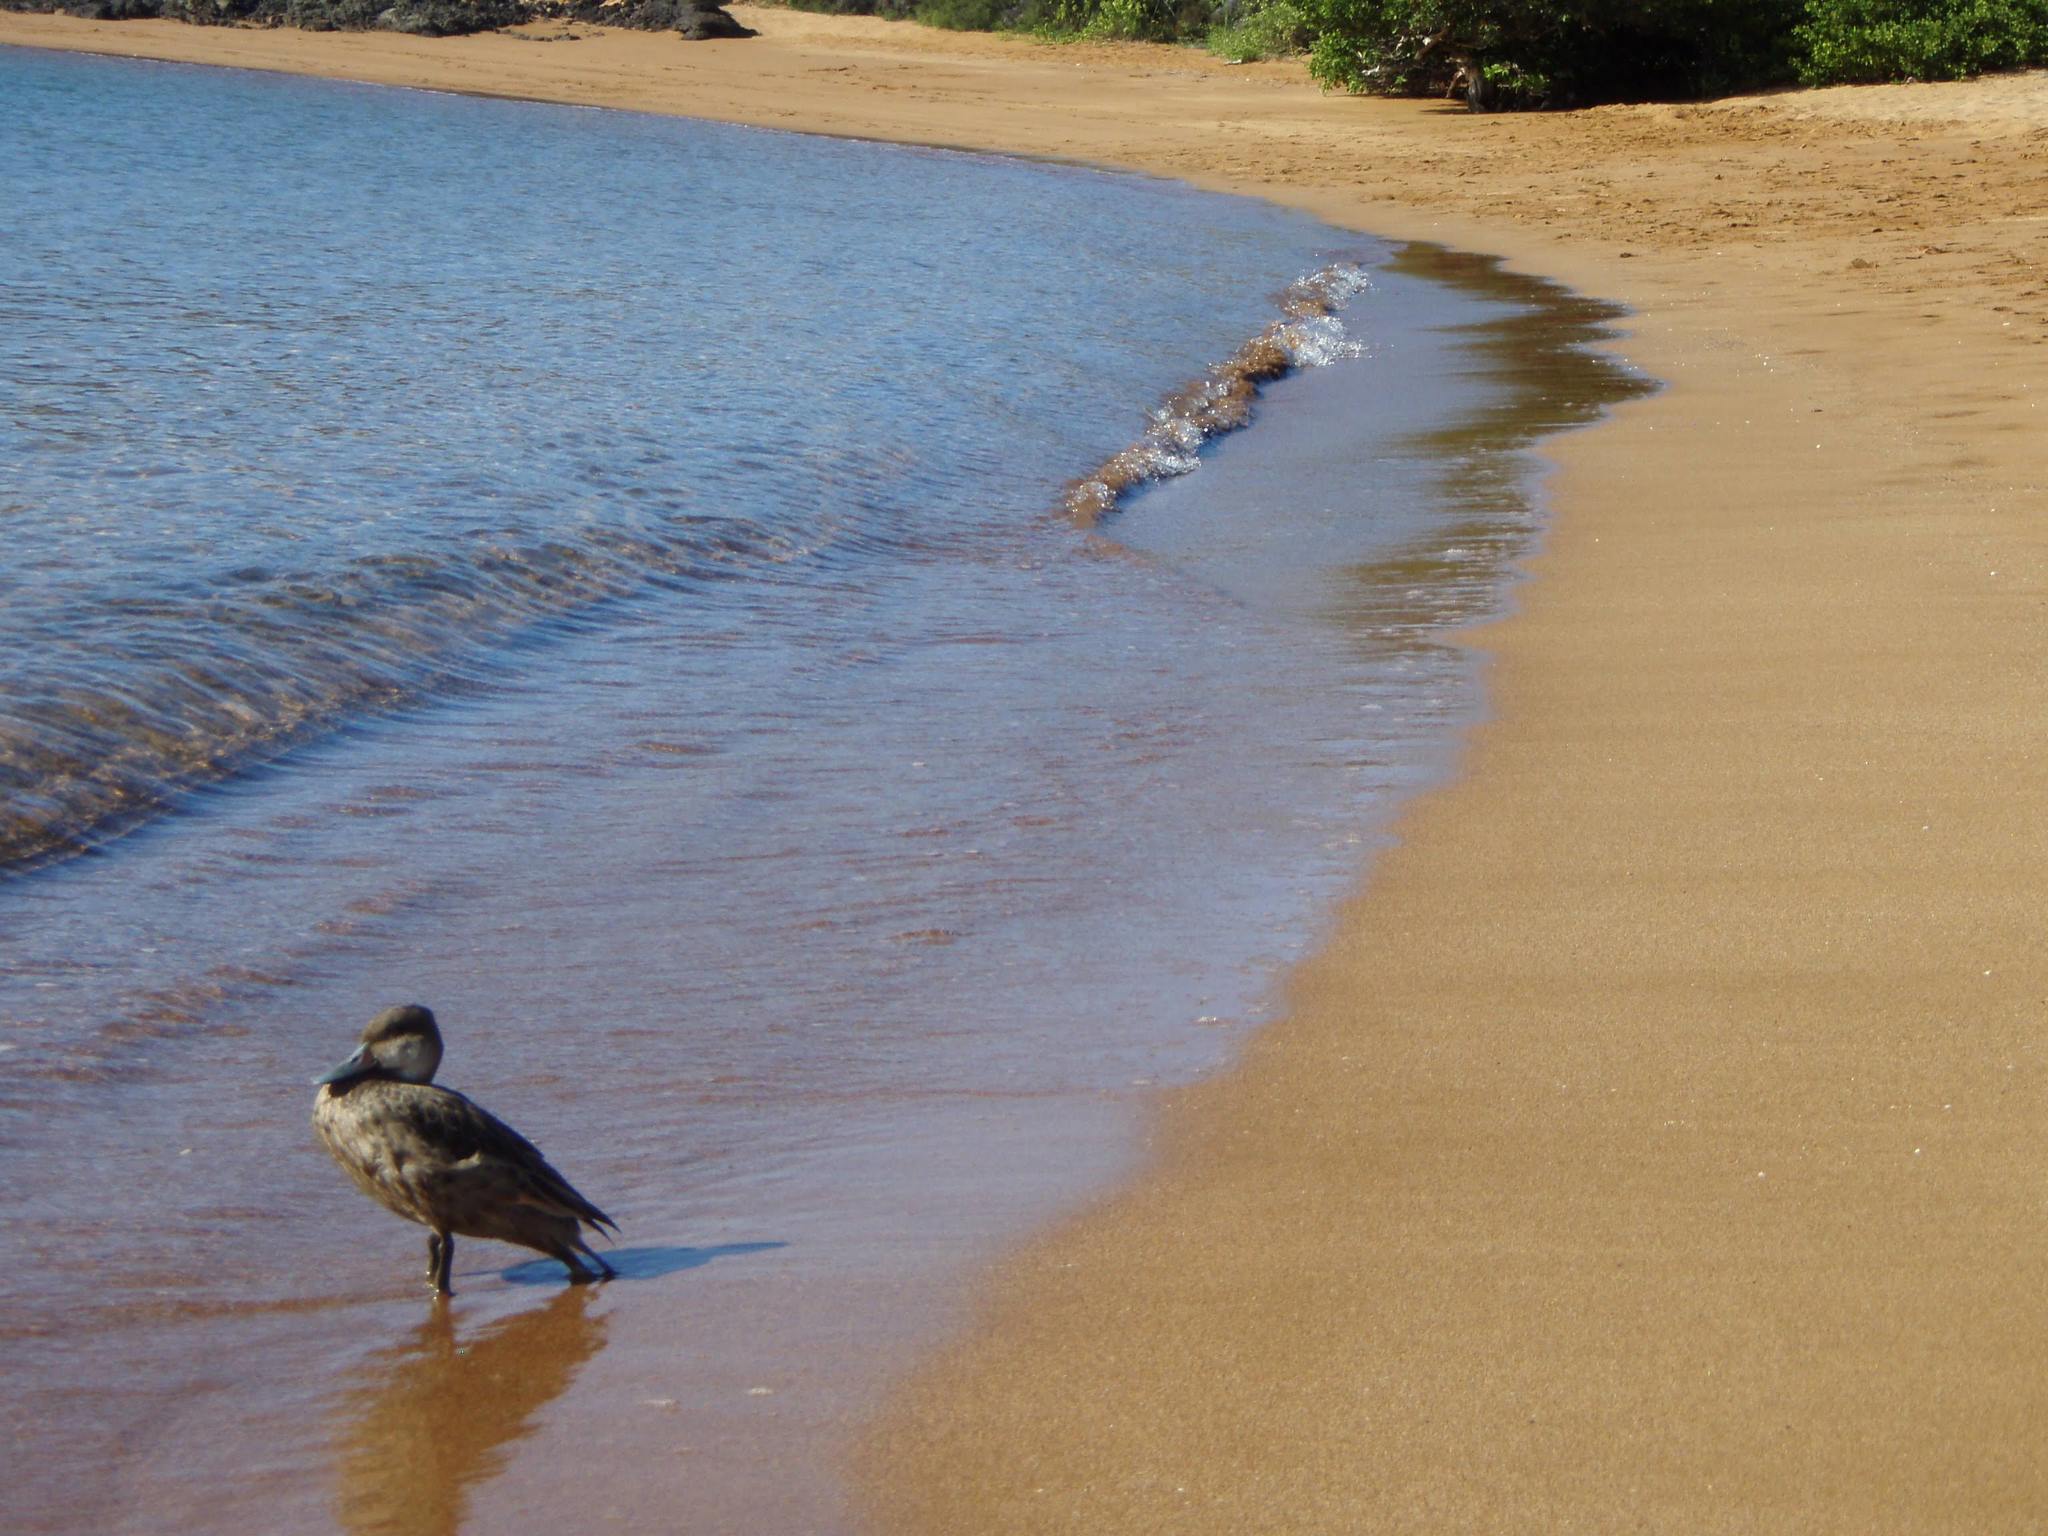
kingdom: Animalia
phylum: Chordata
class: Aves
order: Anseriformes
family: Anatidae
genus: Anas
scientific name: Anas bahamensis
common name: White-cheeked pintail
